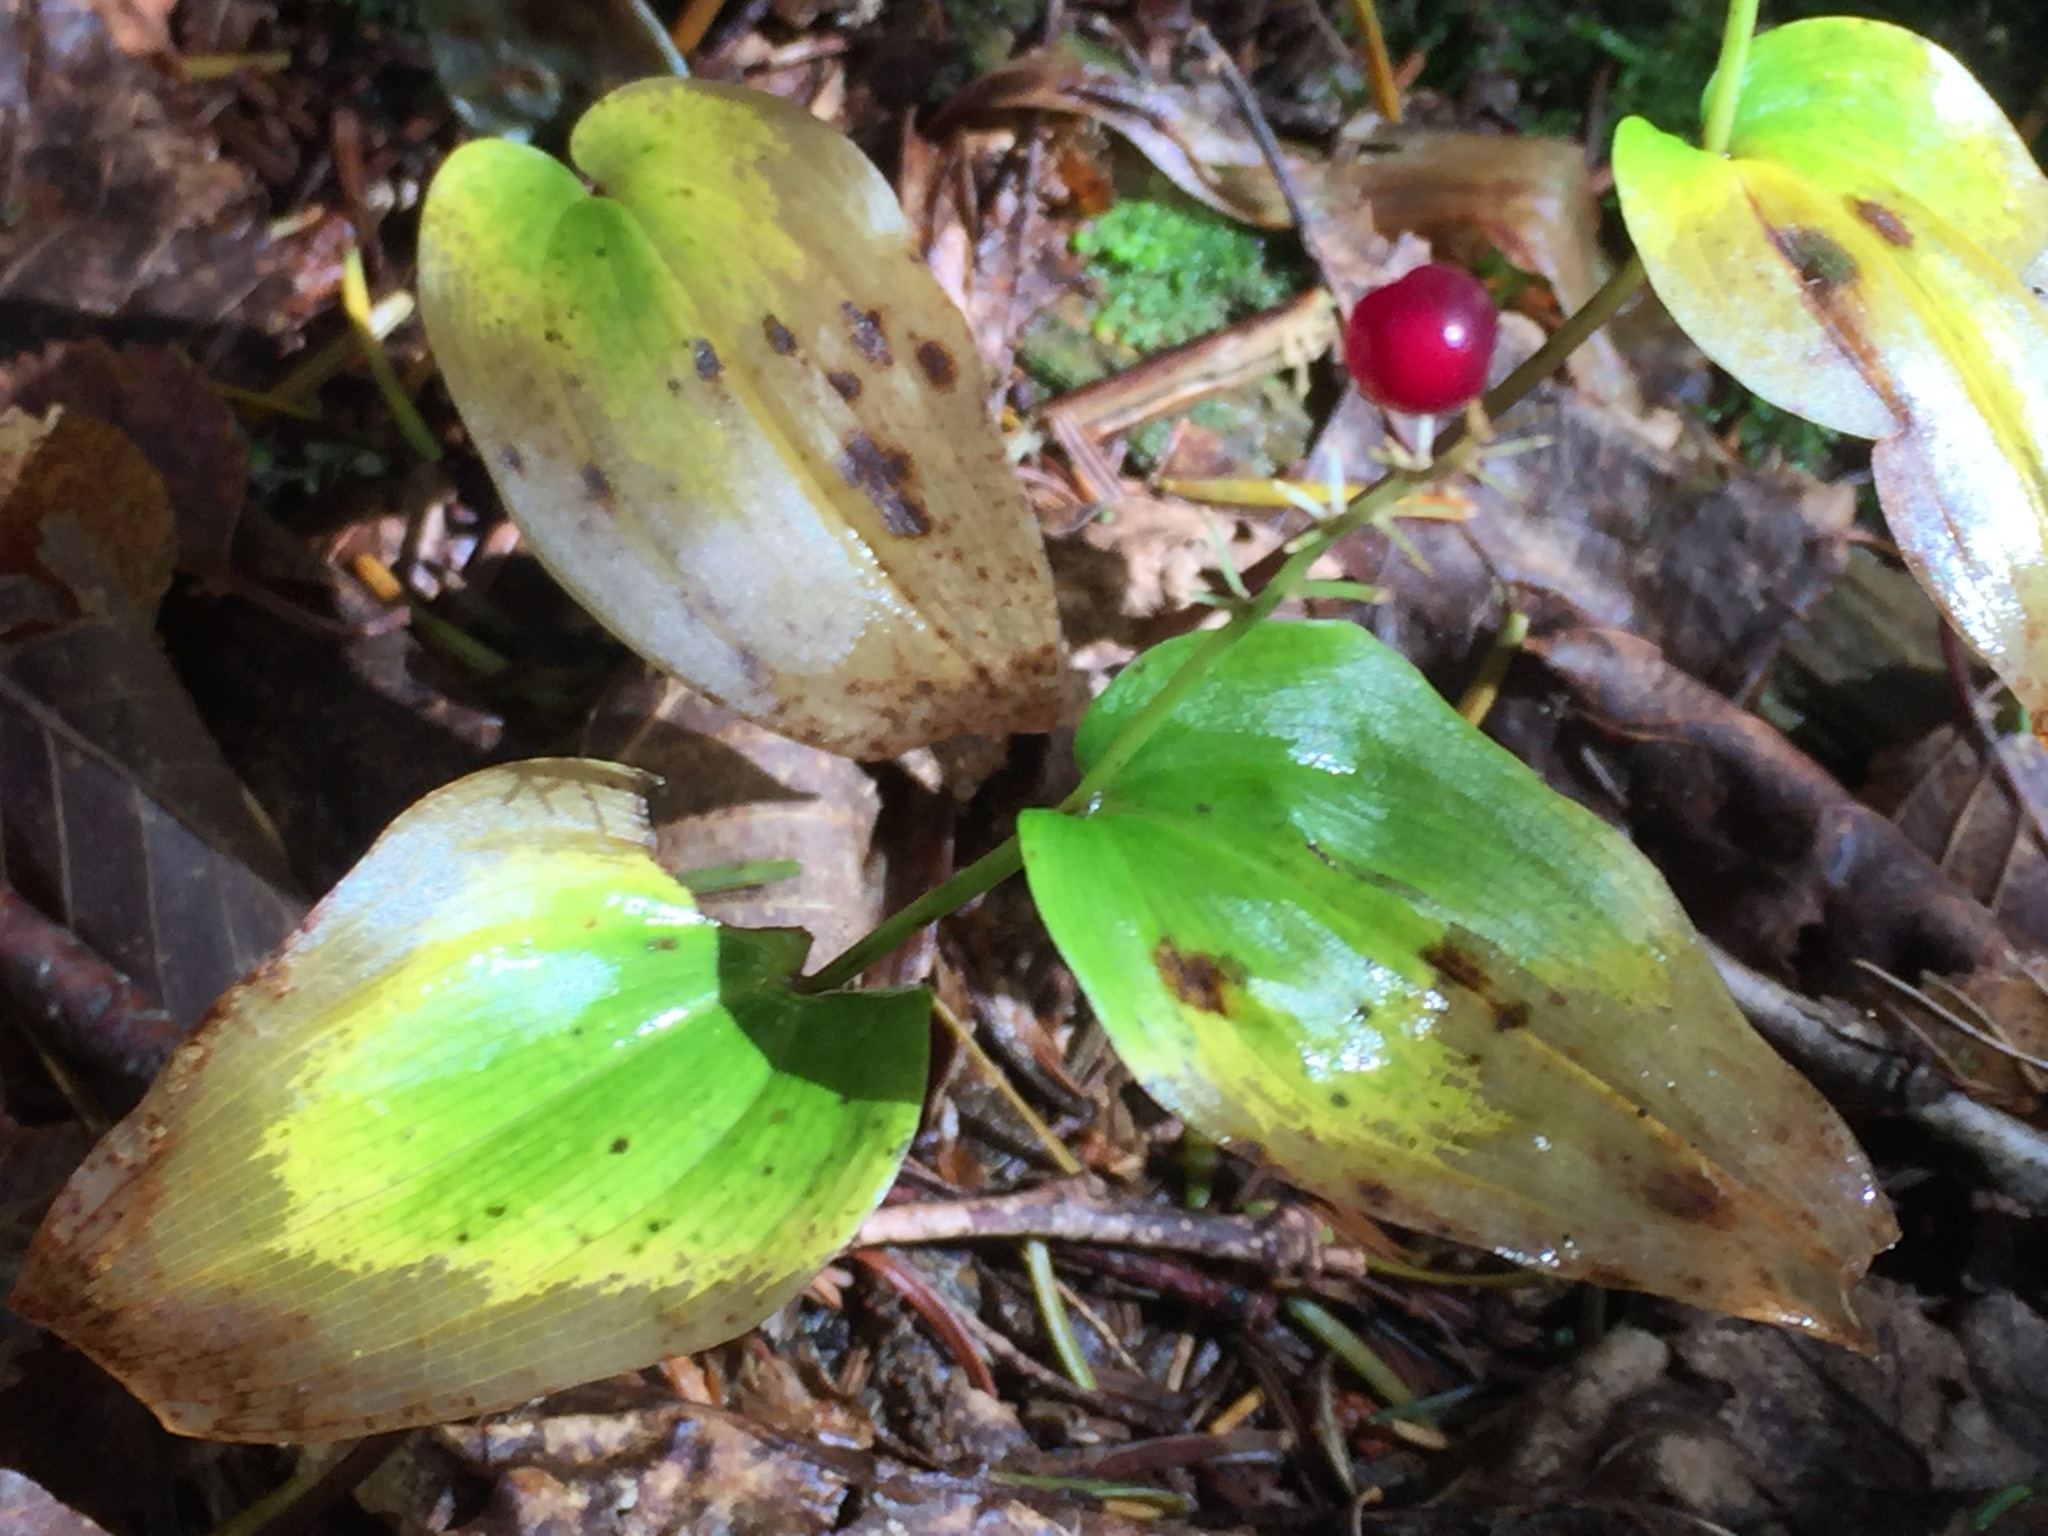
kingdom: Plantae
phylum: Tracheophyta
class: Liliopsida
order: Asparagales
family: Asparagaceae
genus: Maianthemum
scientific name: Maianthemum canadense
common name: False lily-of-the-valley
